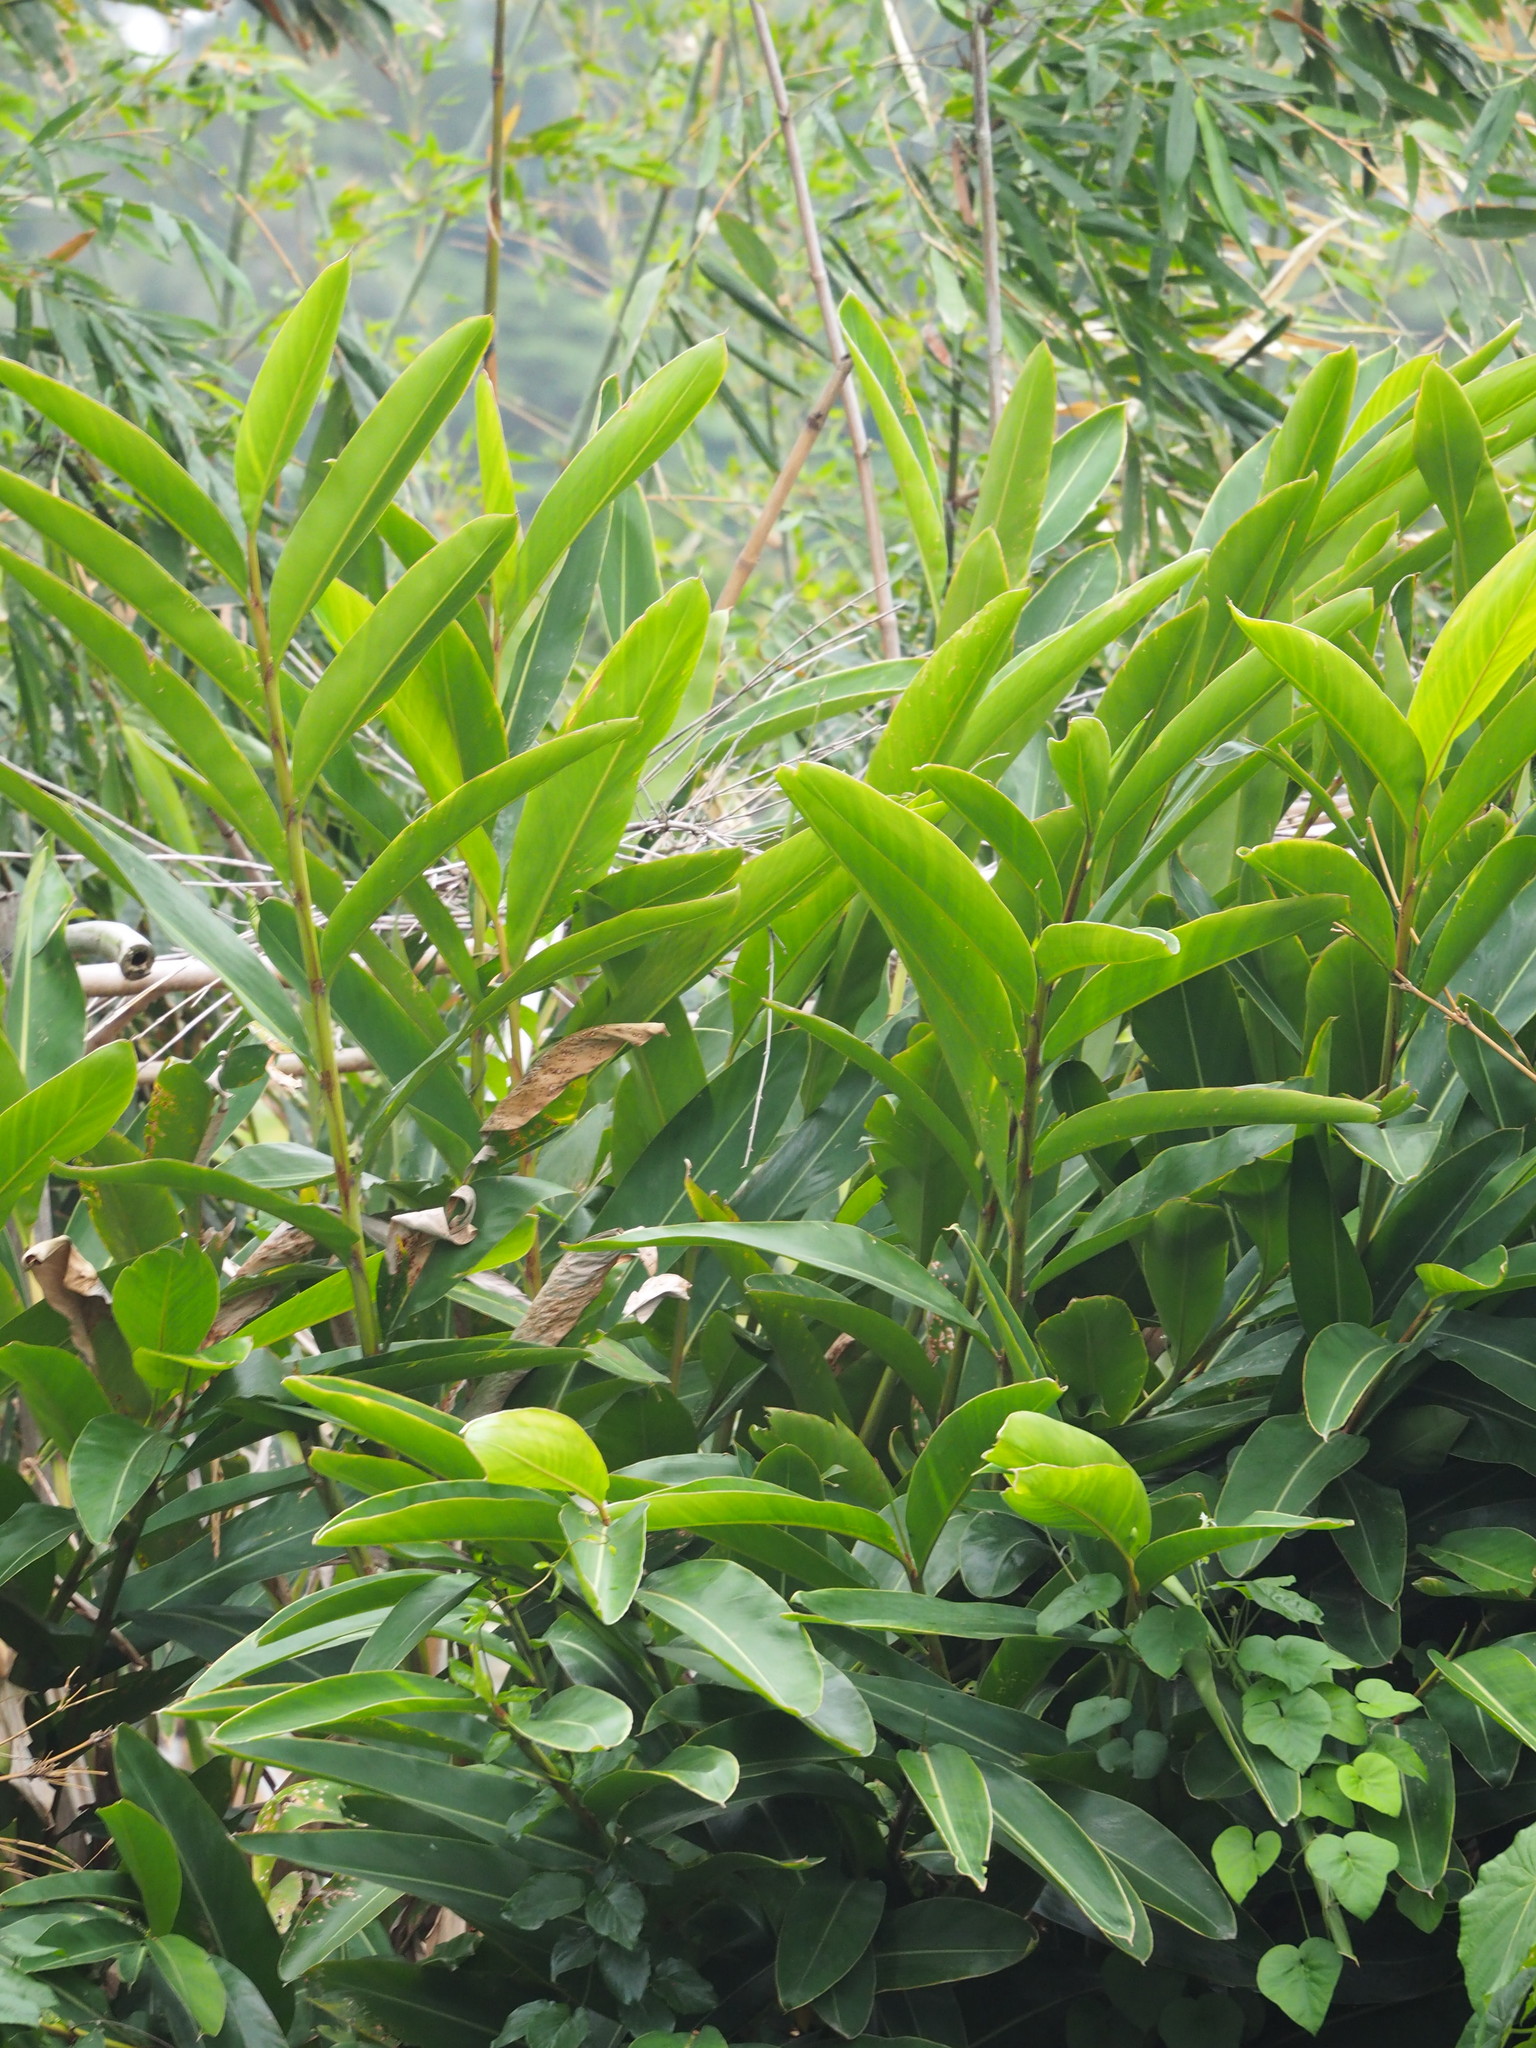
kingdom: Plantae
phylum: Tracheophyta
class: Liliopsida
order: Zingiberales
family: Zingiberaceae
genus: Alpinia
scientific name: Alpinia zerumbet
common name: Shellplant
